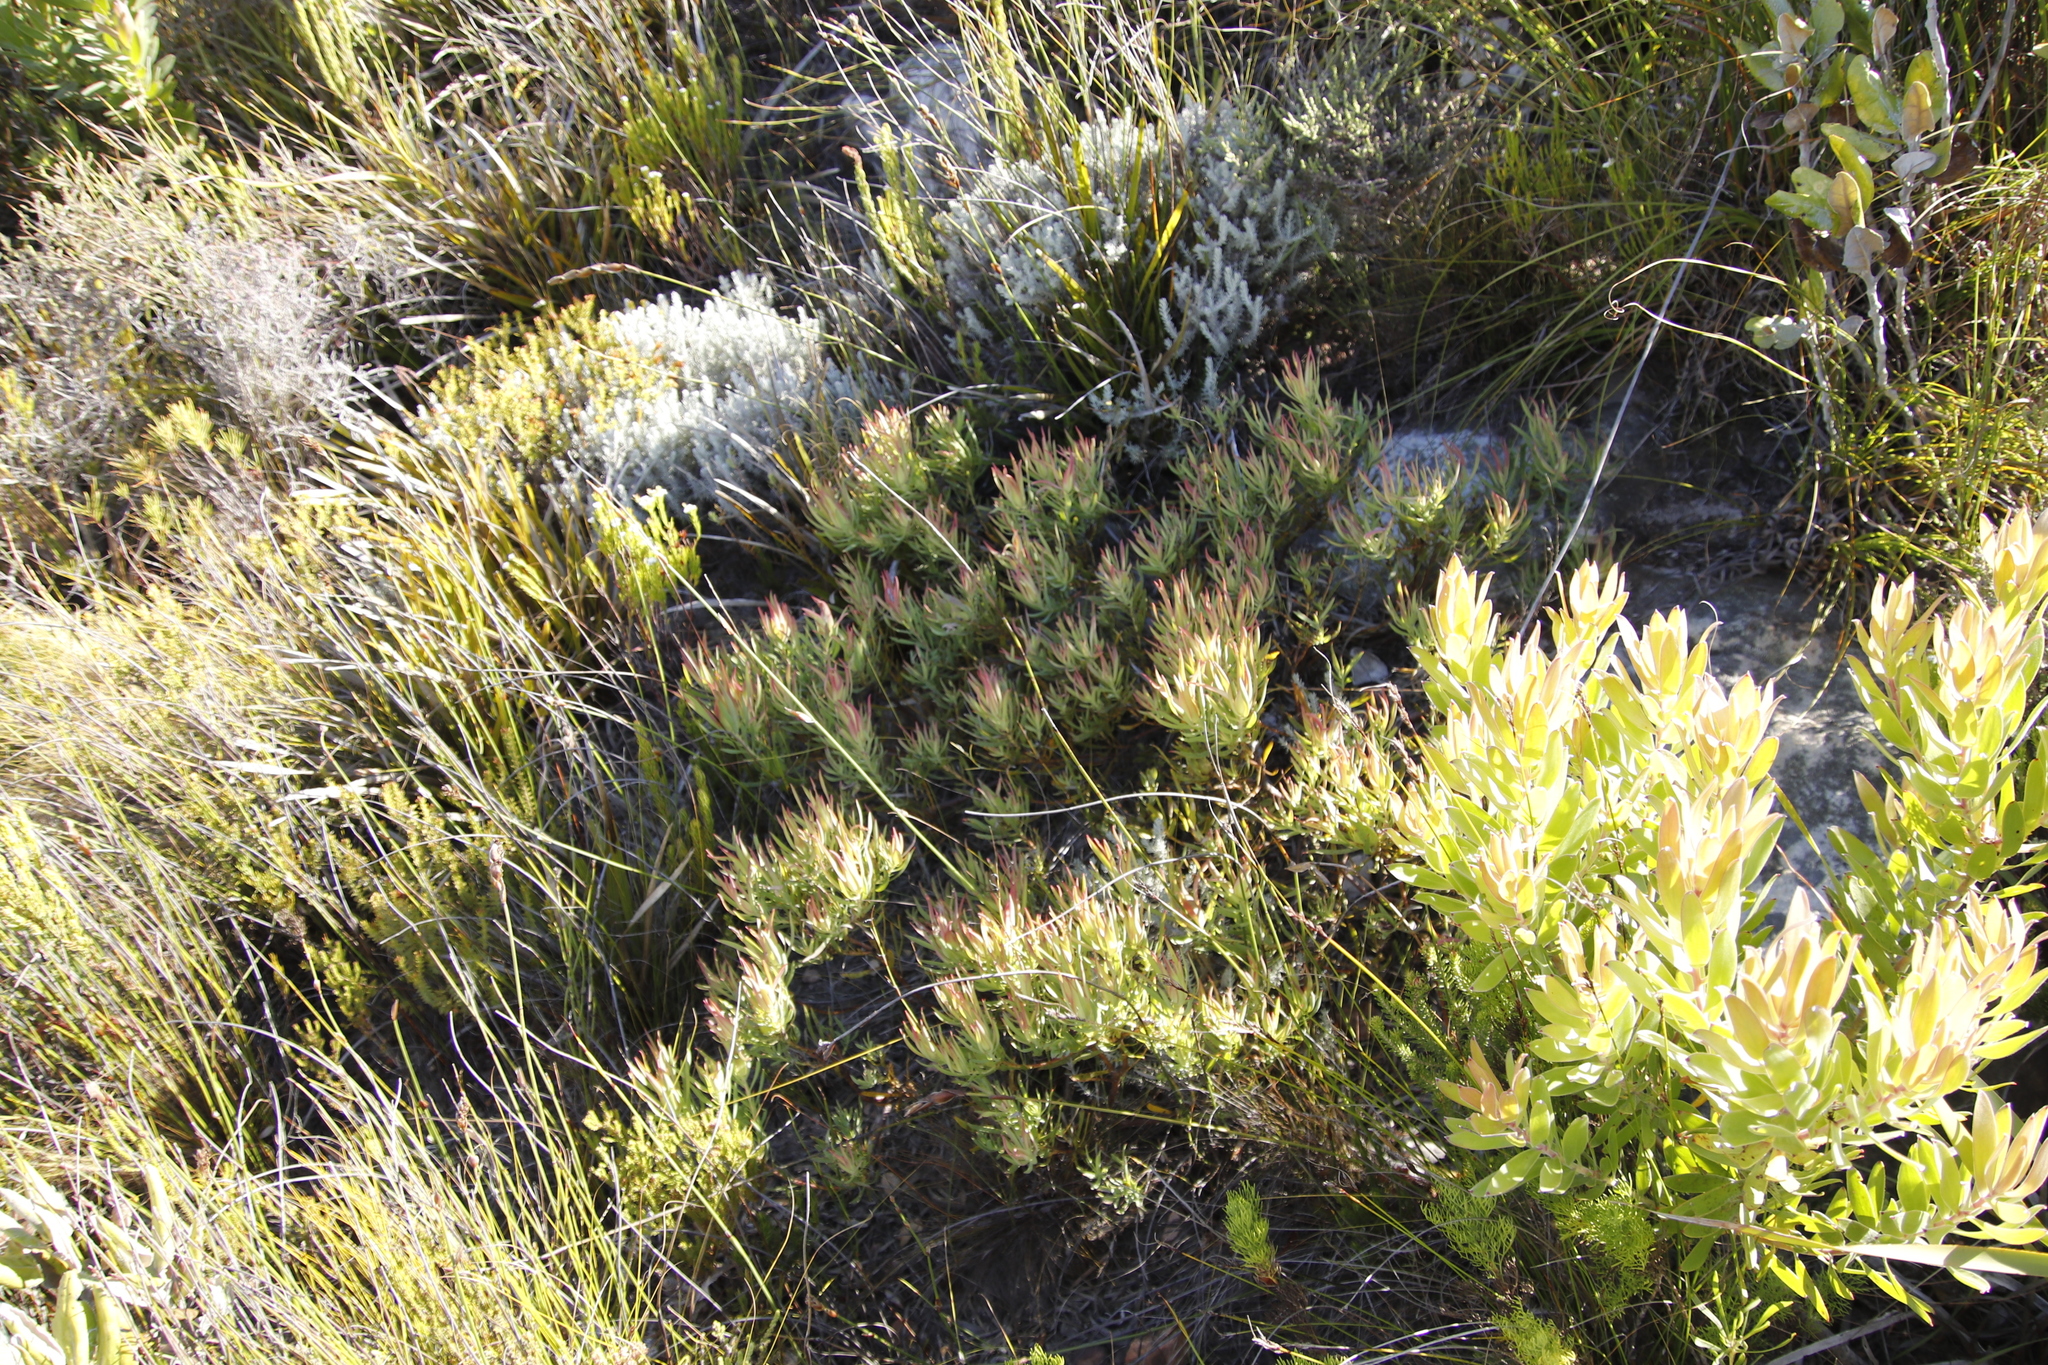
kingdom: Plantae
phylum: Tracheophyta
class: Magnoliopsida
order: Proteales
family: Proteaceae
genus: Leucadendron
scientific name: Leucadendron salignum
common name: Common sunshine conebush
